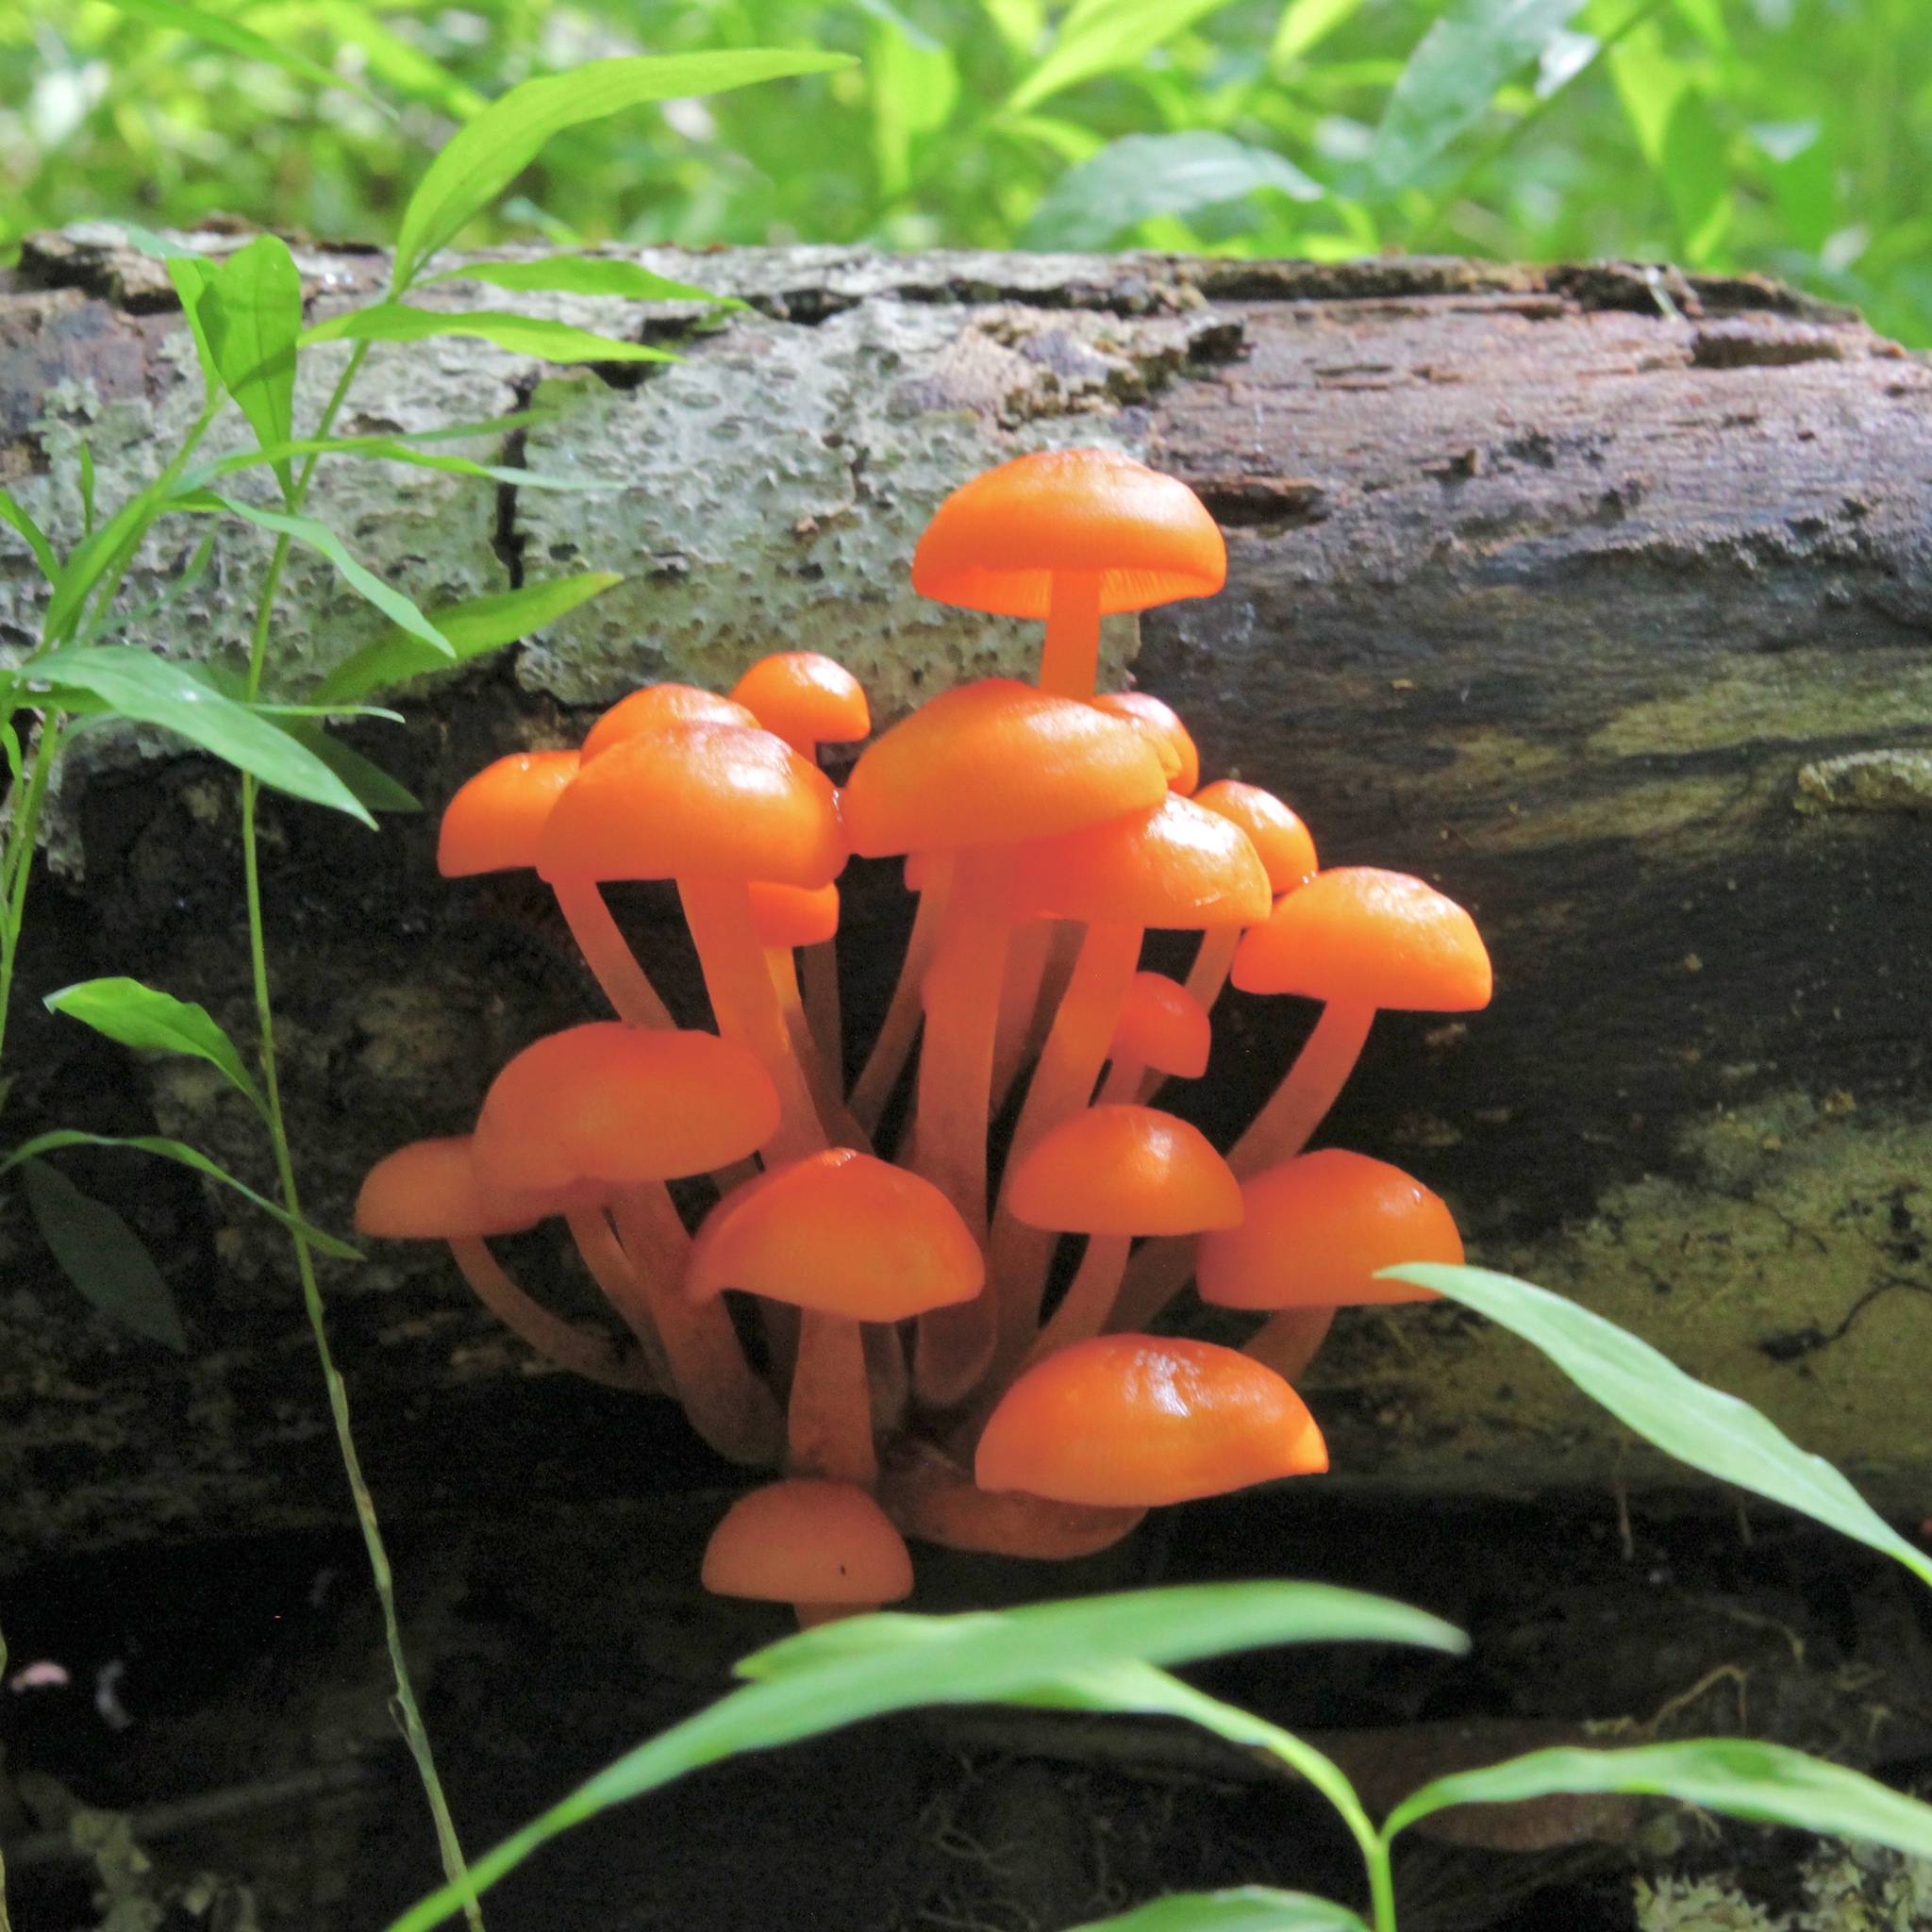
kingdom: Fungi
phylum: Basidiomycota
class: Agaricomycetes
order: Agaricales
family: Mycenaceae
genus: Mycena
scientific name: Mycena leaiana
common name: Orange mycena
